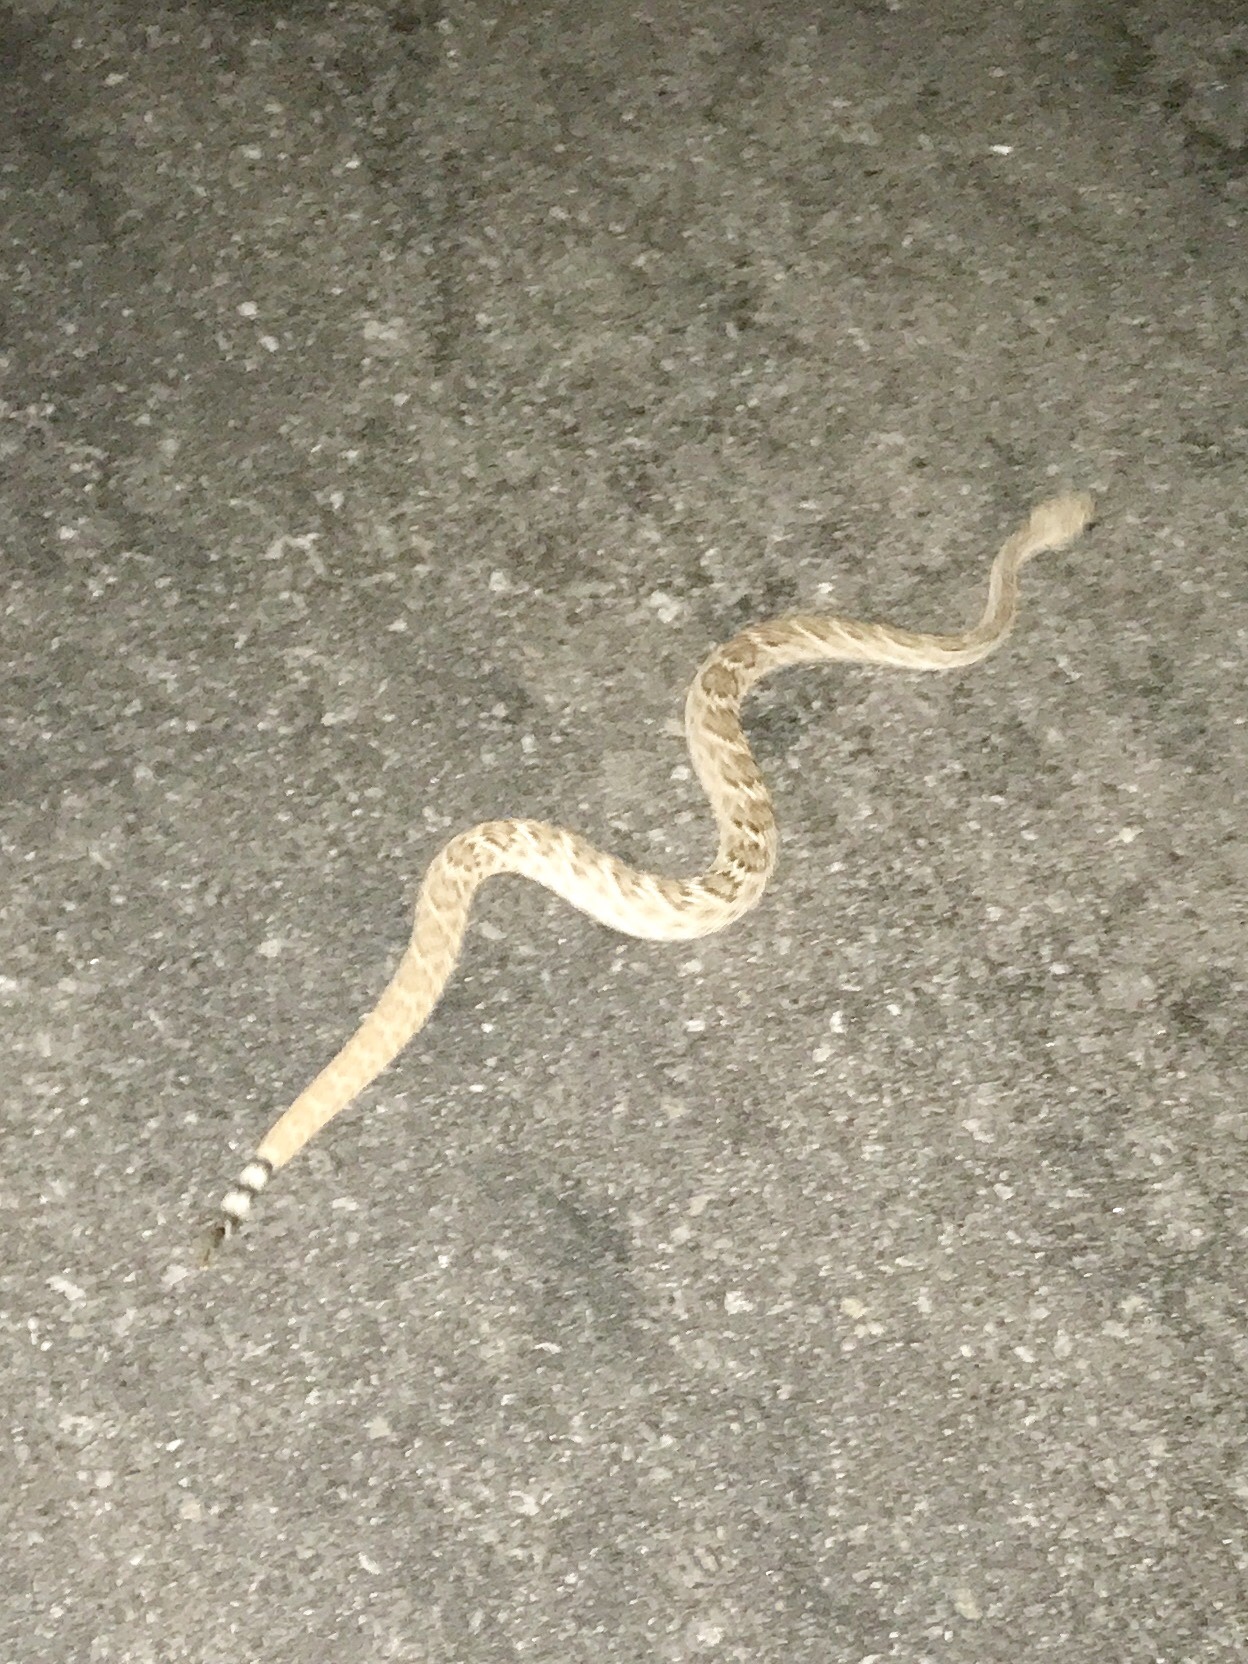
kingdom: Animalia
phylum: Chordata
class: Squamata
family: Viperidae
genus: Crotalus
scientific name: Crotalus atrox
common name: Western diamond-backed rattlesnake
